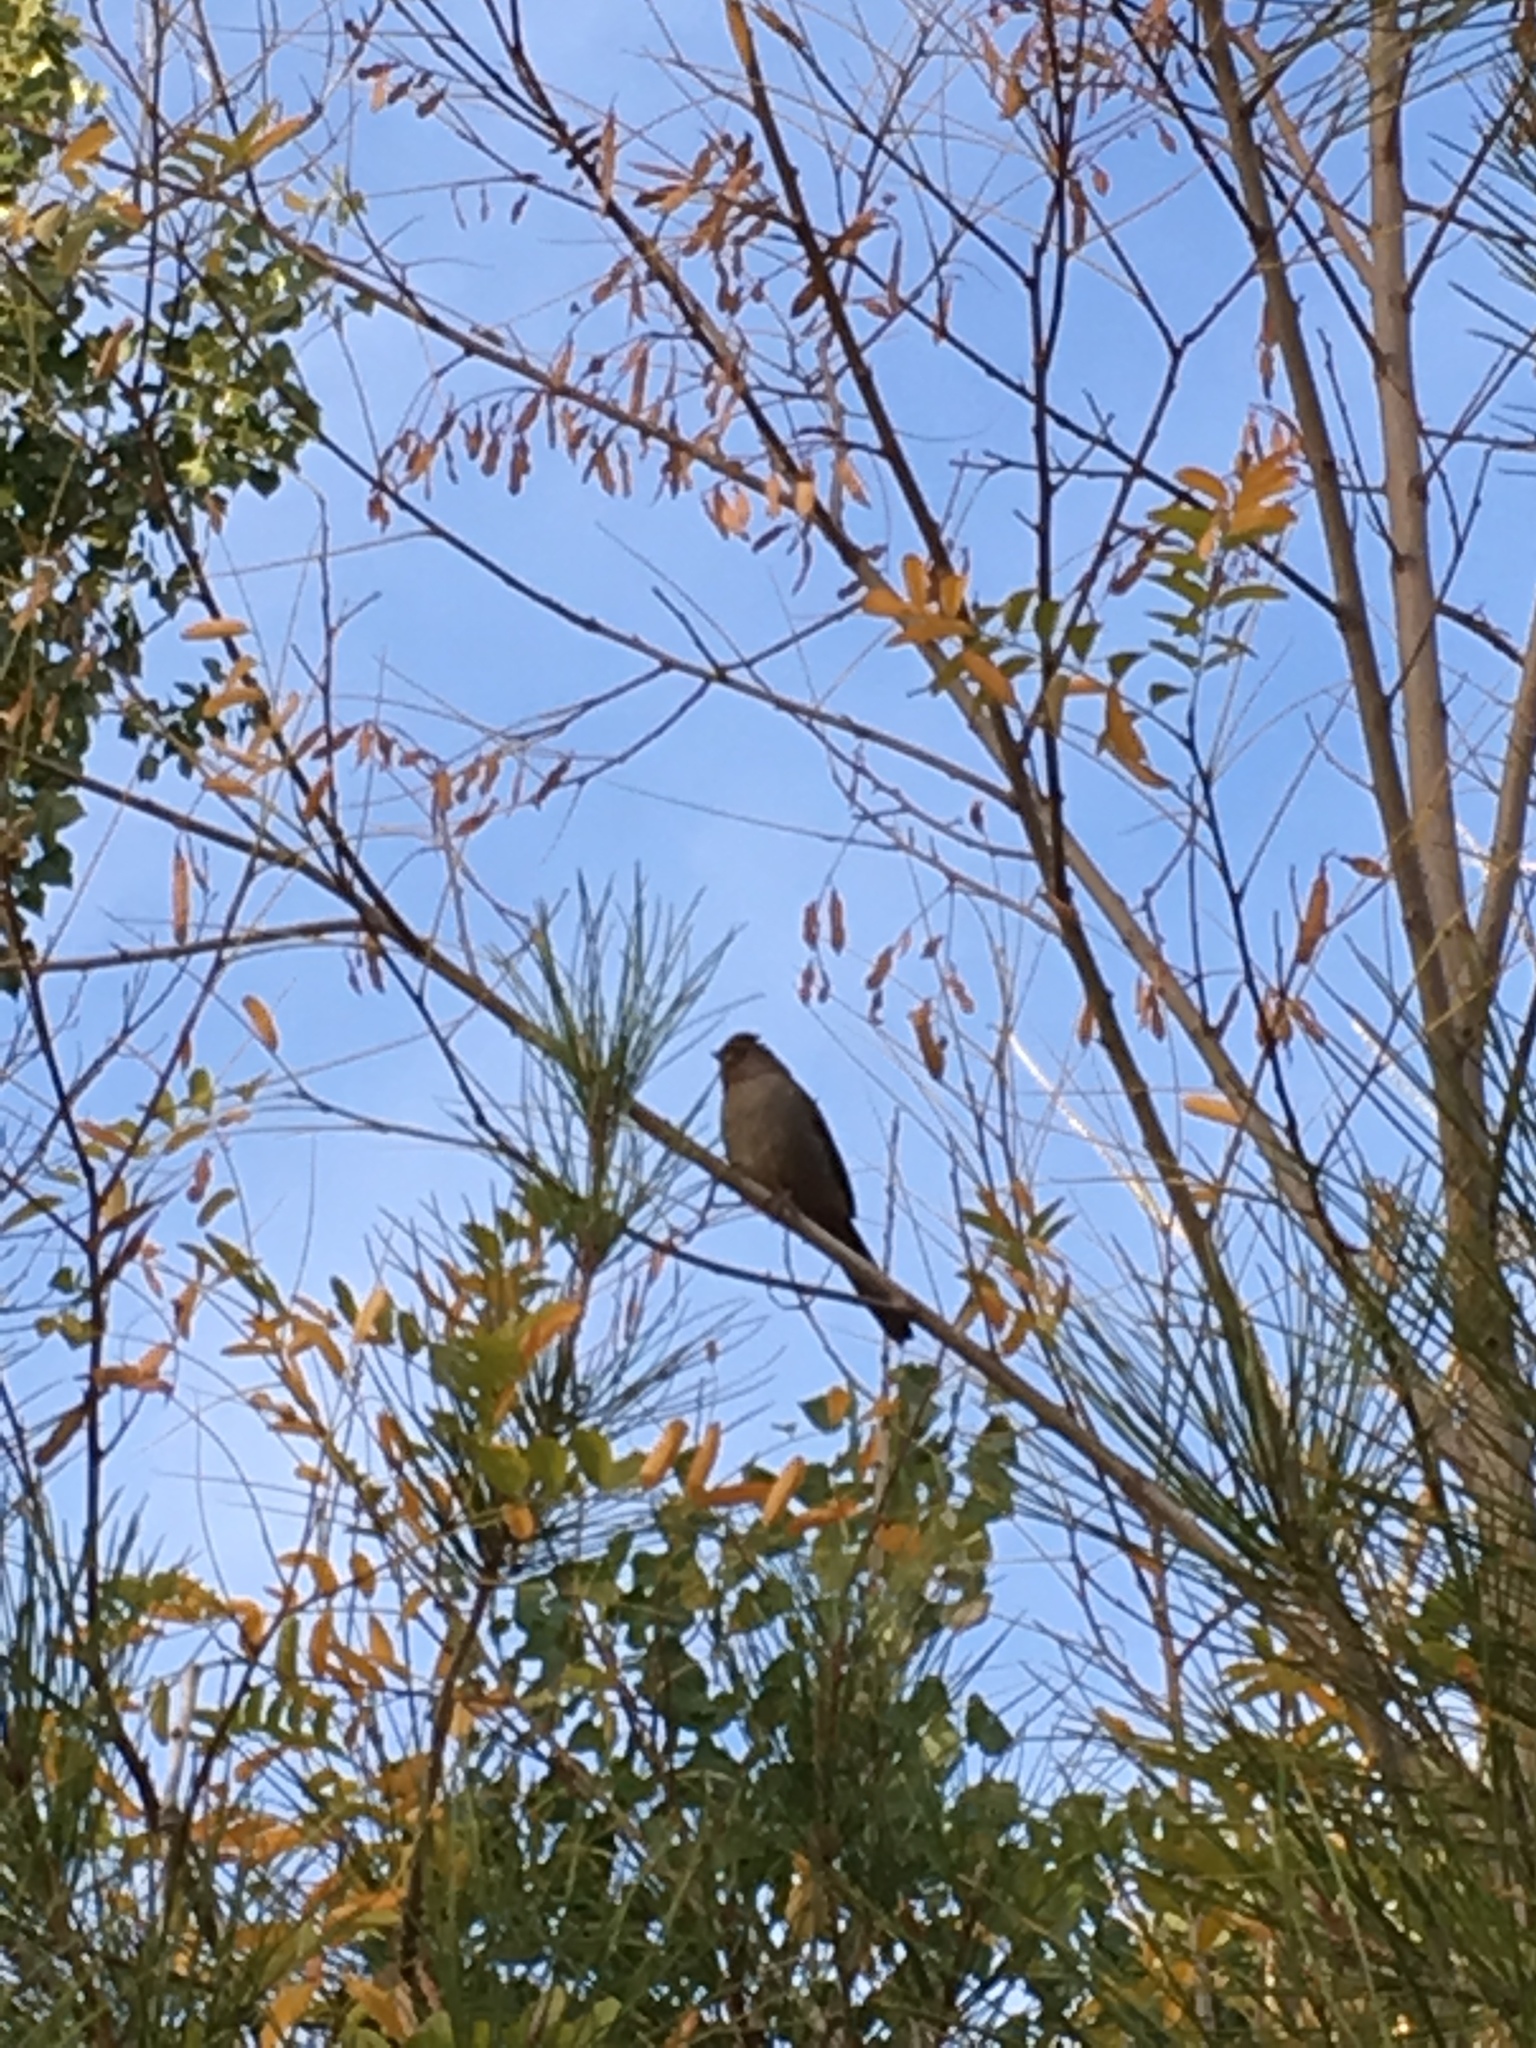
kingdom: Animalia
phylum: Chordata
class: Aves
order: Passeriformes
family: Passerellidae
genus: Melozone
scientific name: Melozone crissalis
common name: California towhee
